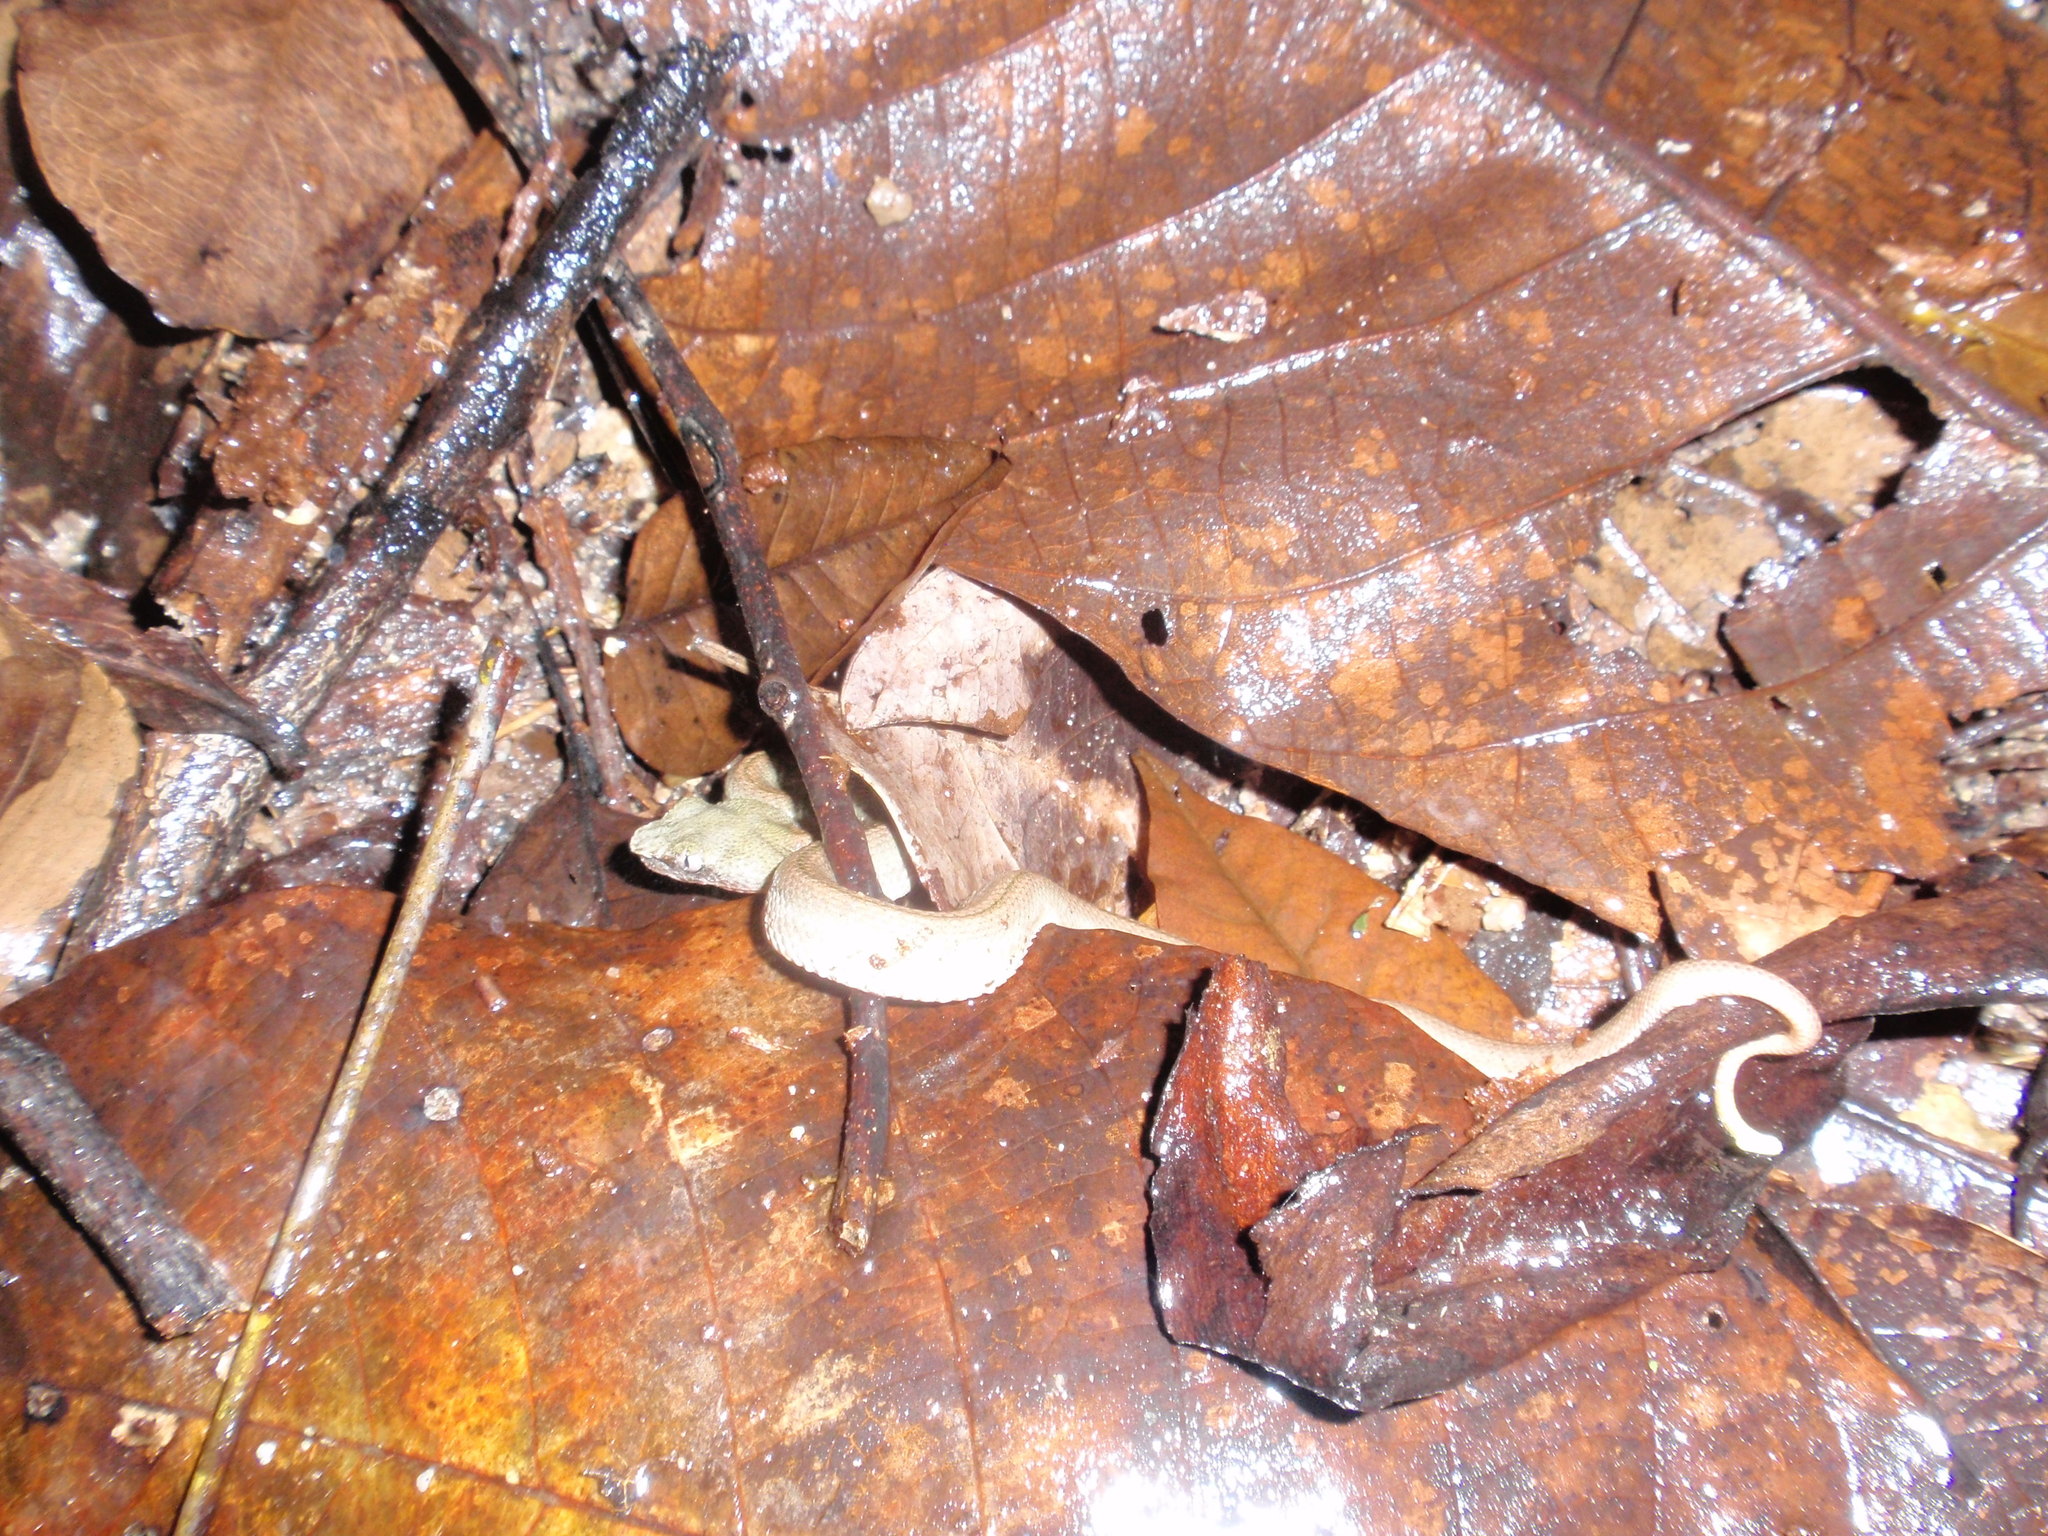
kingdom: Animalia
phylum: Chordata
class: Squamata
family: Viperidae
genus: Bothriechis
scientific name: Bothriechis schlegelii
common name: Eyelash viper
